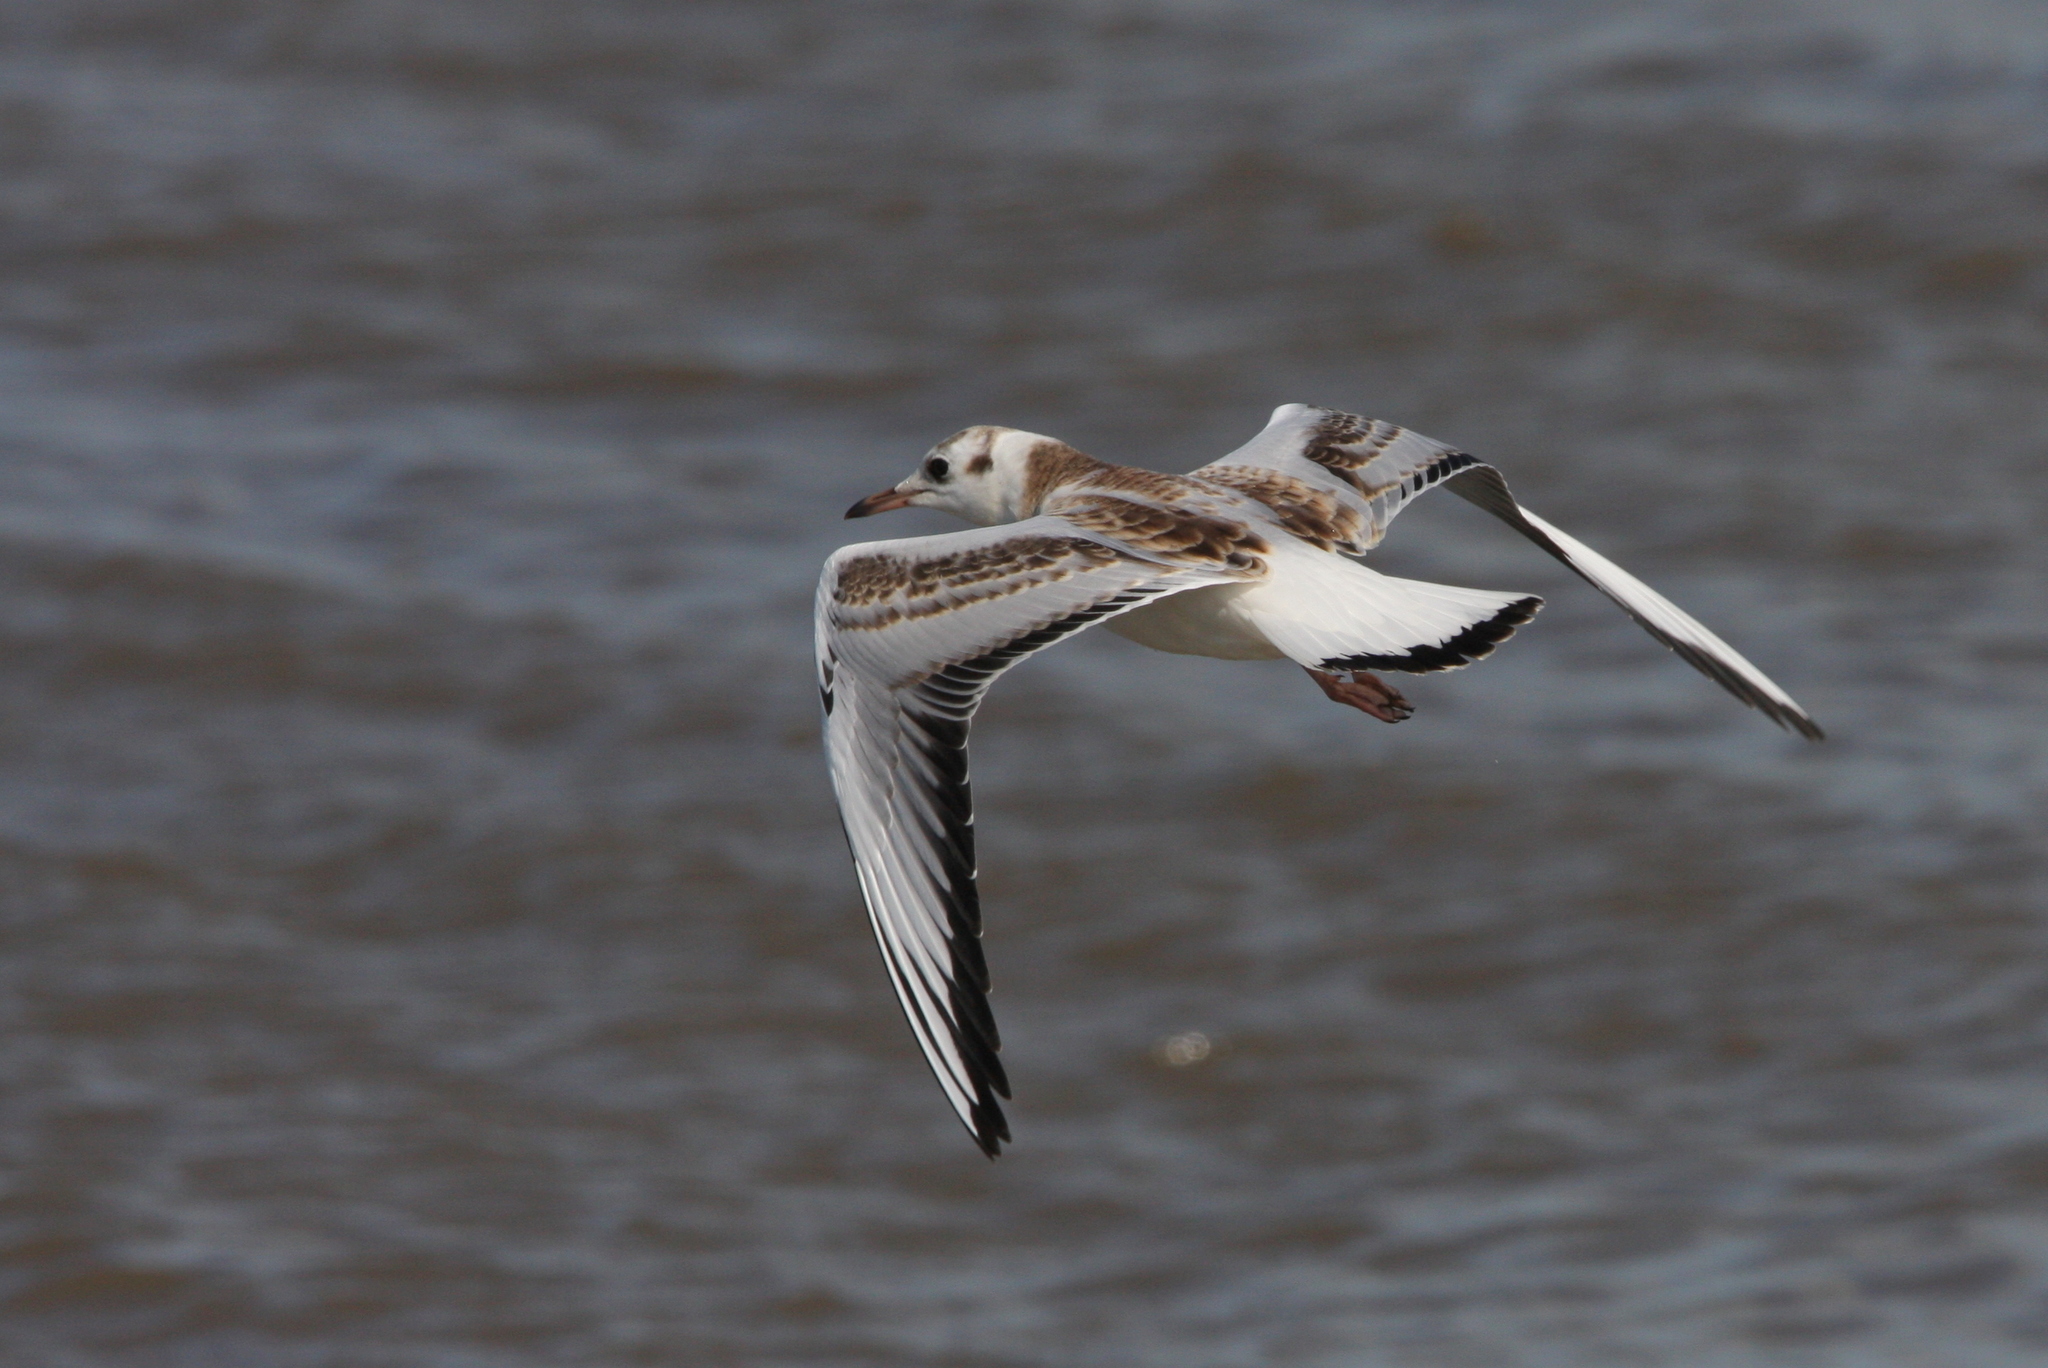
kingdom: Animalia
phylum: Chordata
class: Aves
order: Charadriiformes
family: Laridae
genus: Chroicocephalus
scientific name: Chroicocephalus ridibundus
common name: Black-headed gull
